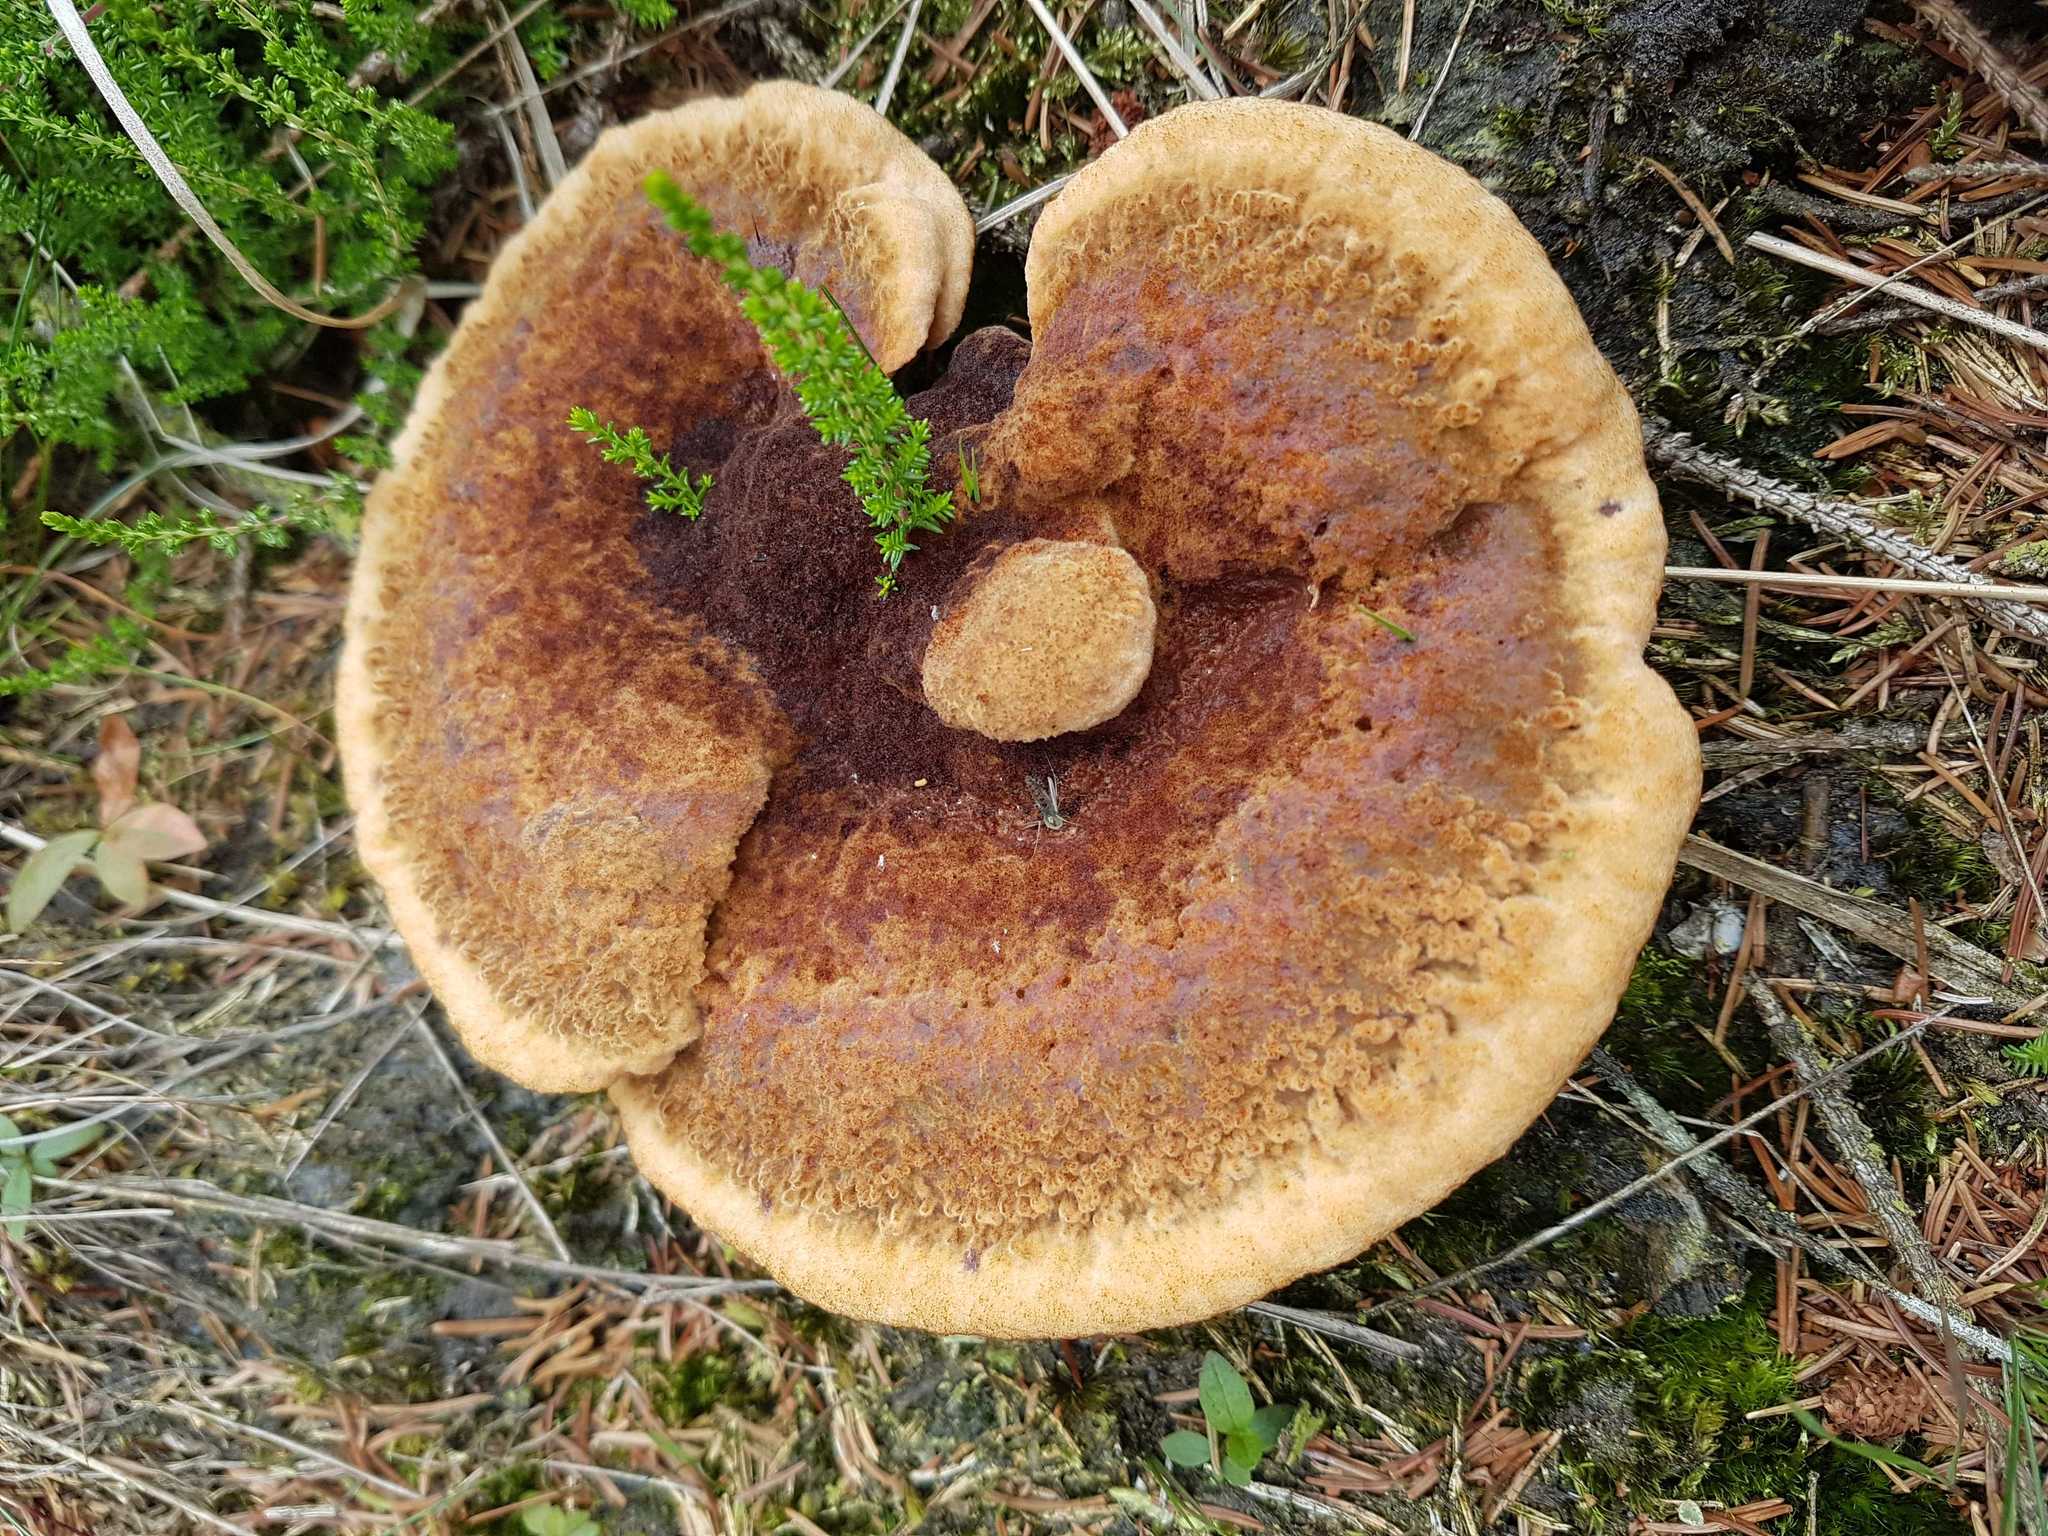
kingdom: Fungi
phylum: Basidiomycota
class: Agaricomycetes
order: Polyporales
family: Laetiporaceae
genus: Phaeolus
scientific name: Phaeolus schweinitzii
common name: Dyer's mazegill
